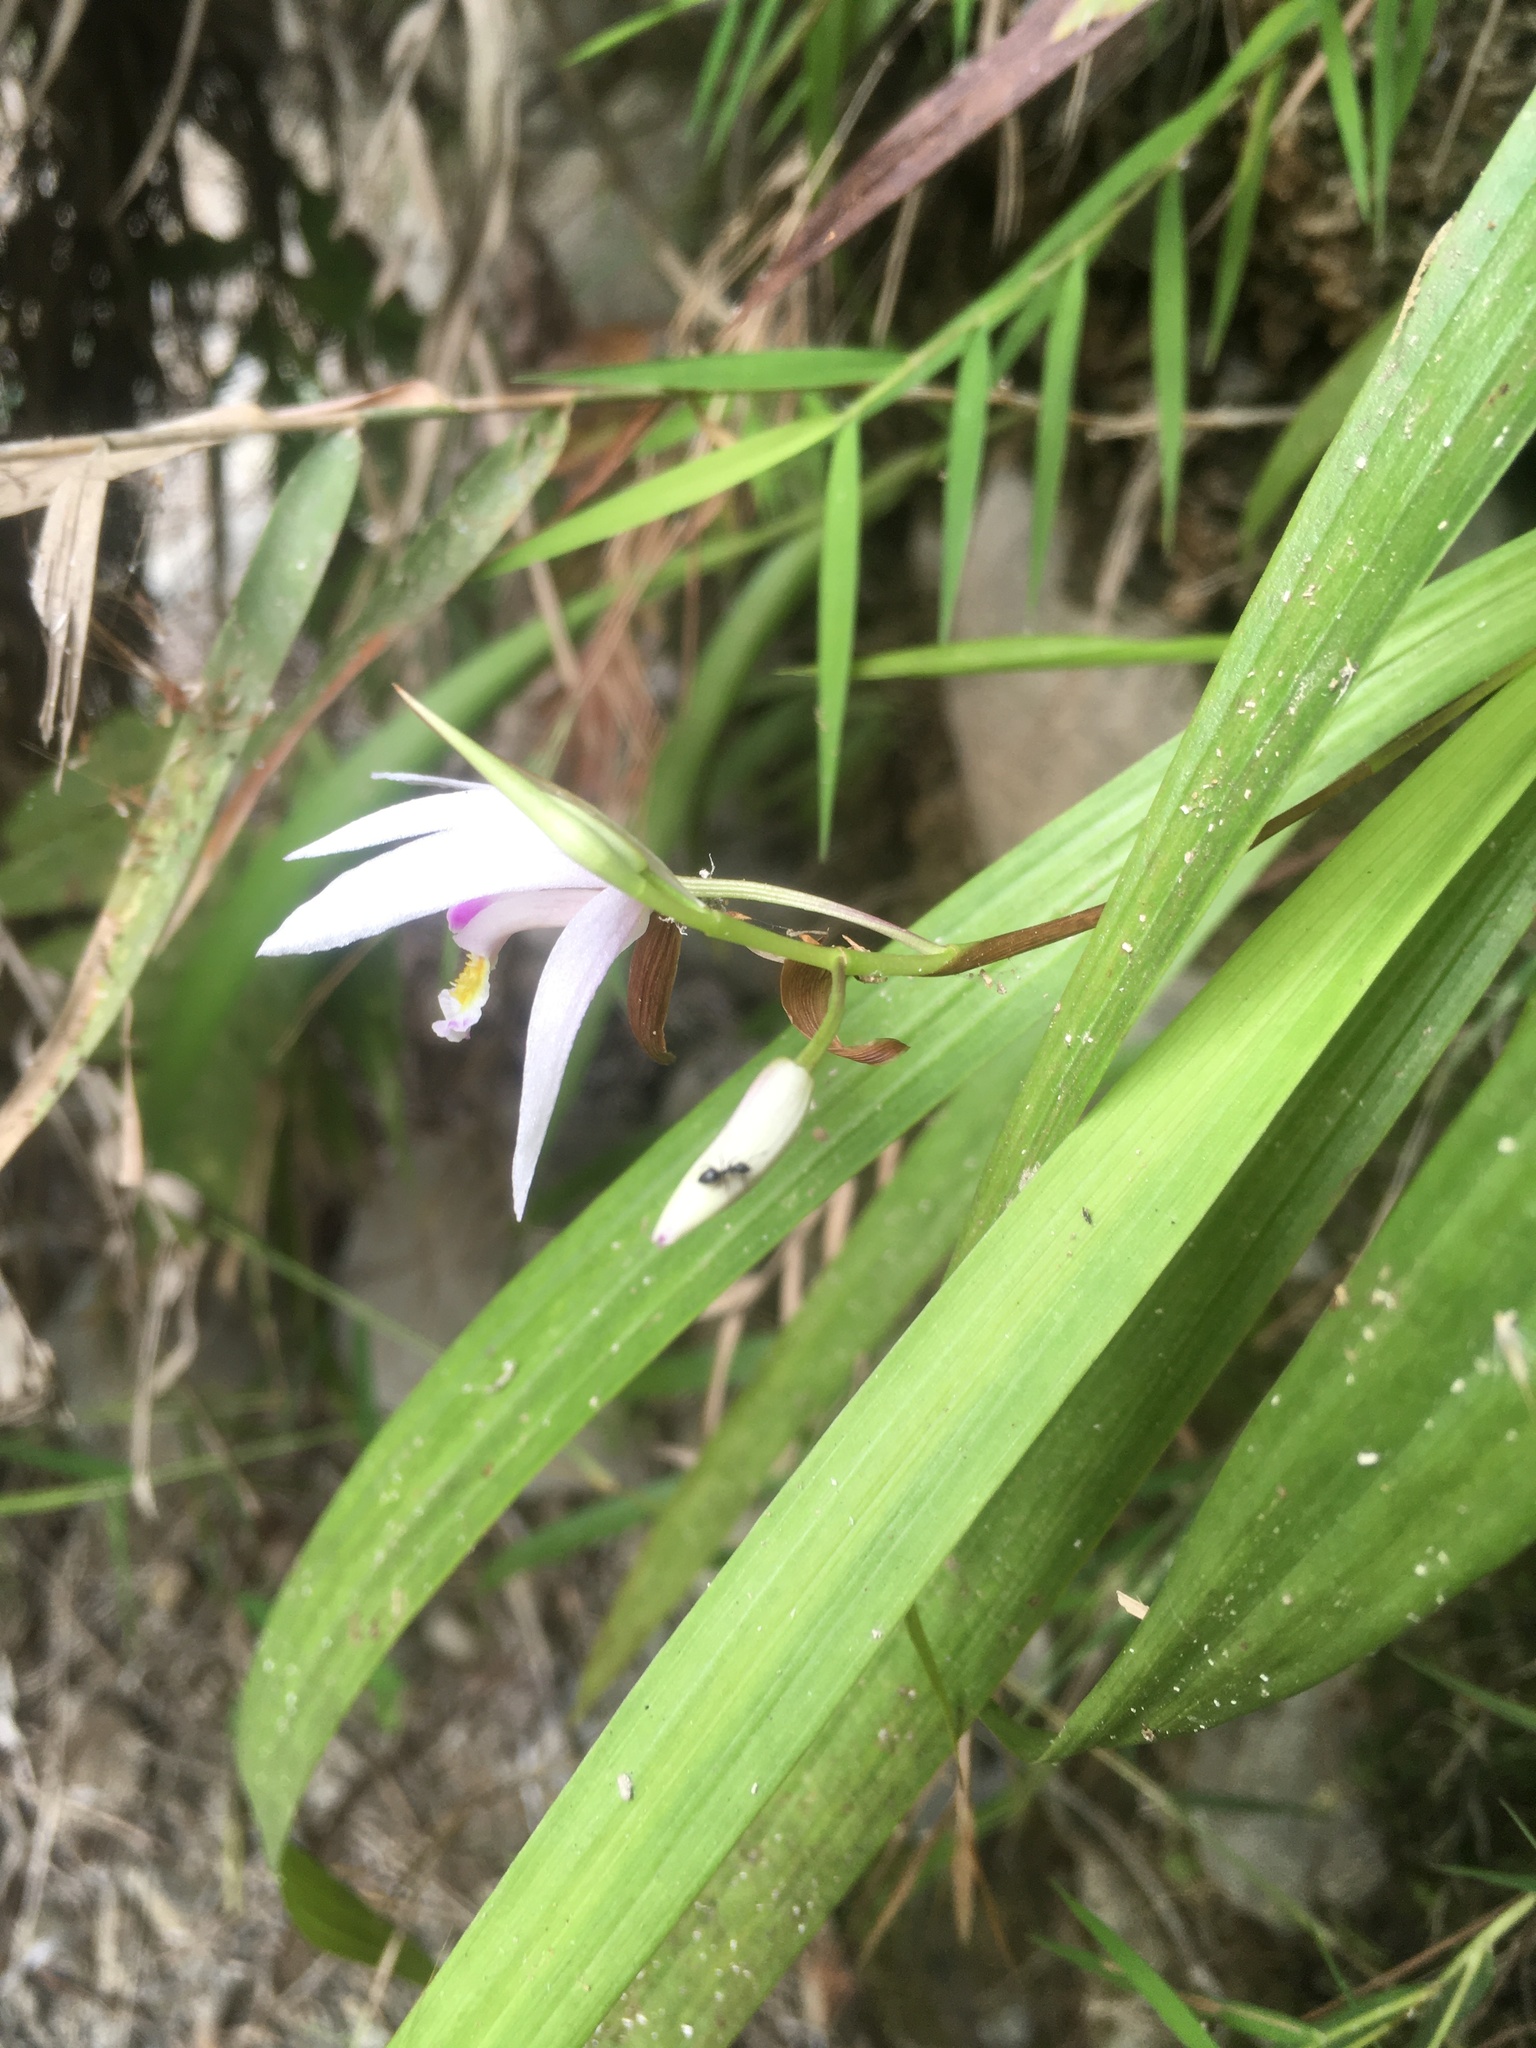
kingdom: Plantae
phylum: Tracheophyta
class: Liliopsida
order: Asparagales
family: Orchidaceae
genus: Bletilla
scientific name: Bletilla formosana
